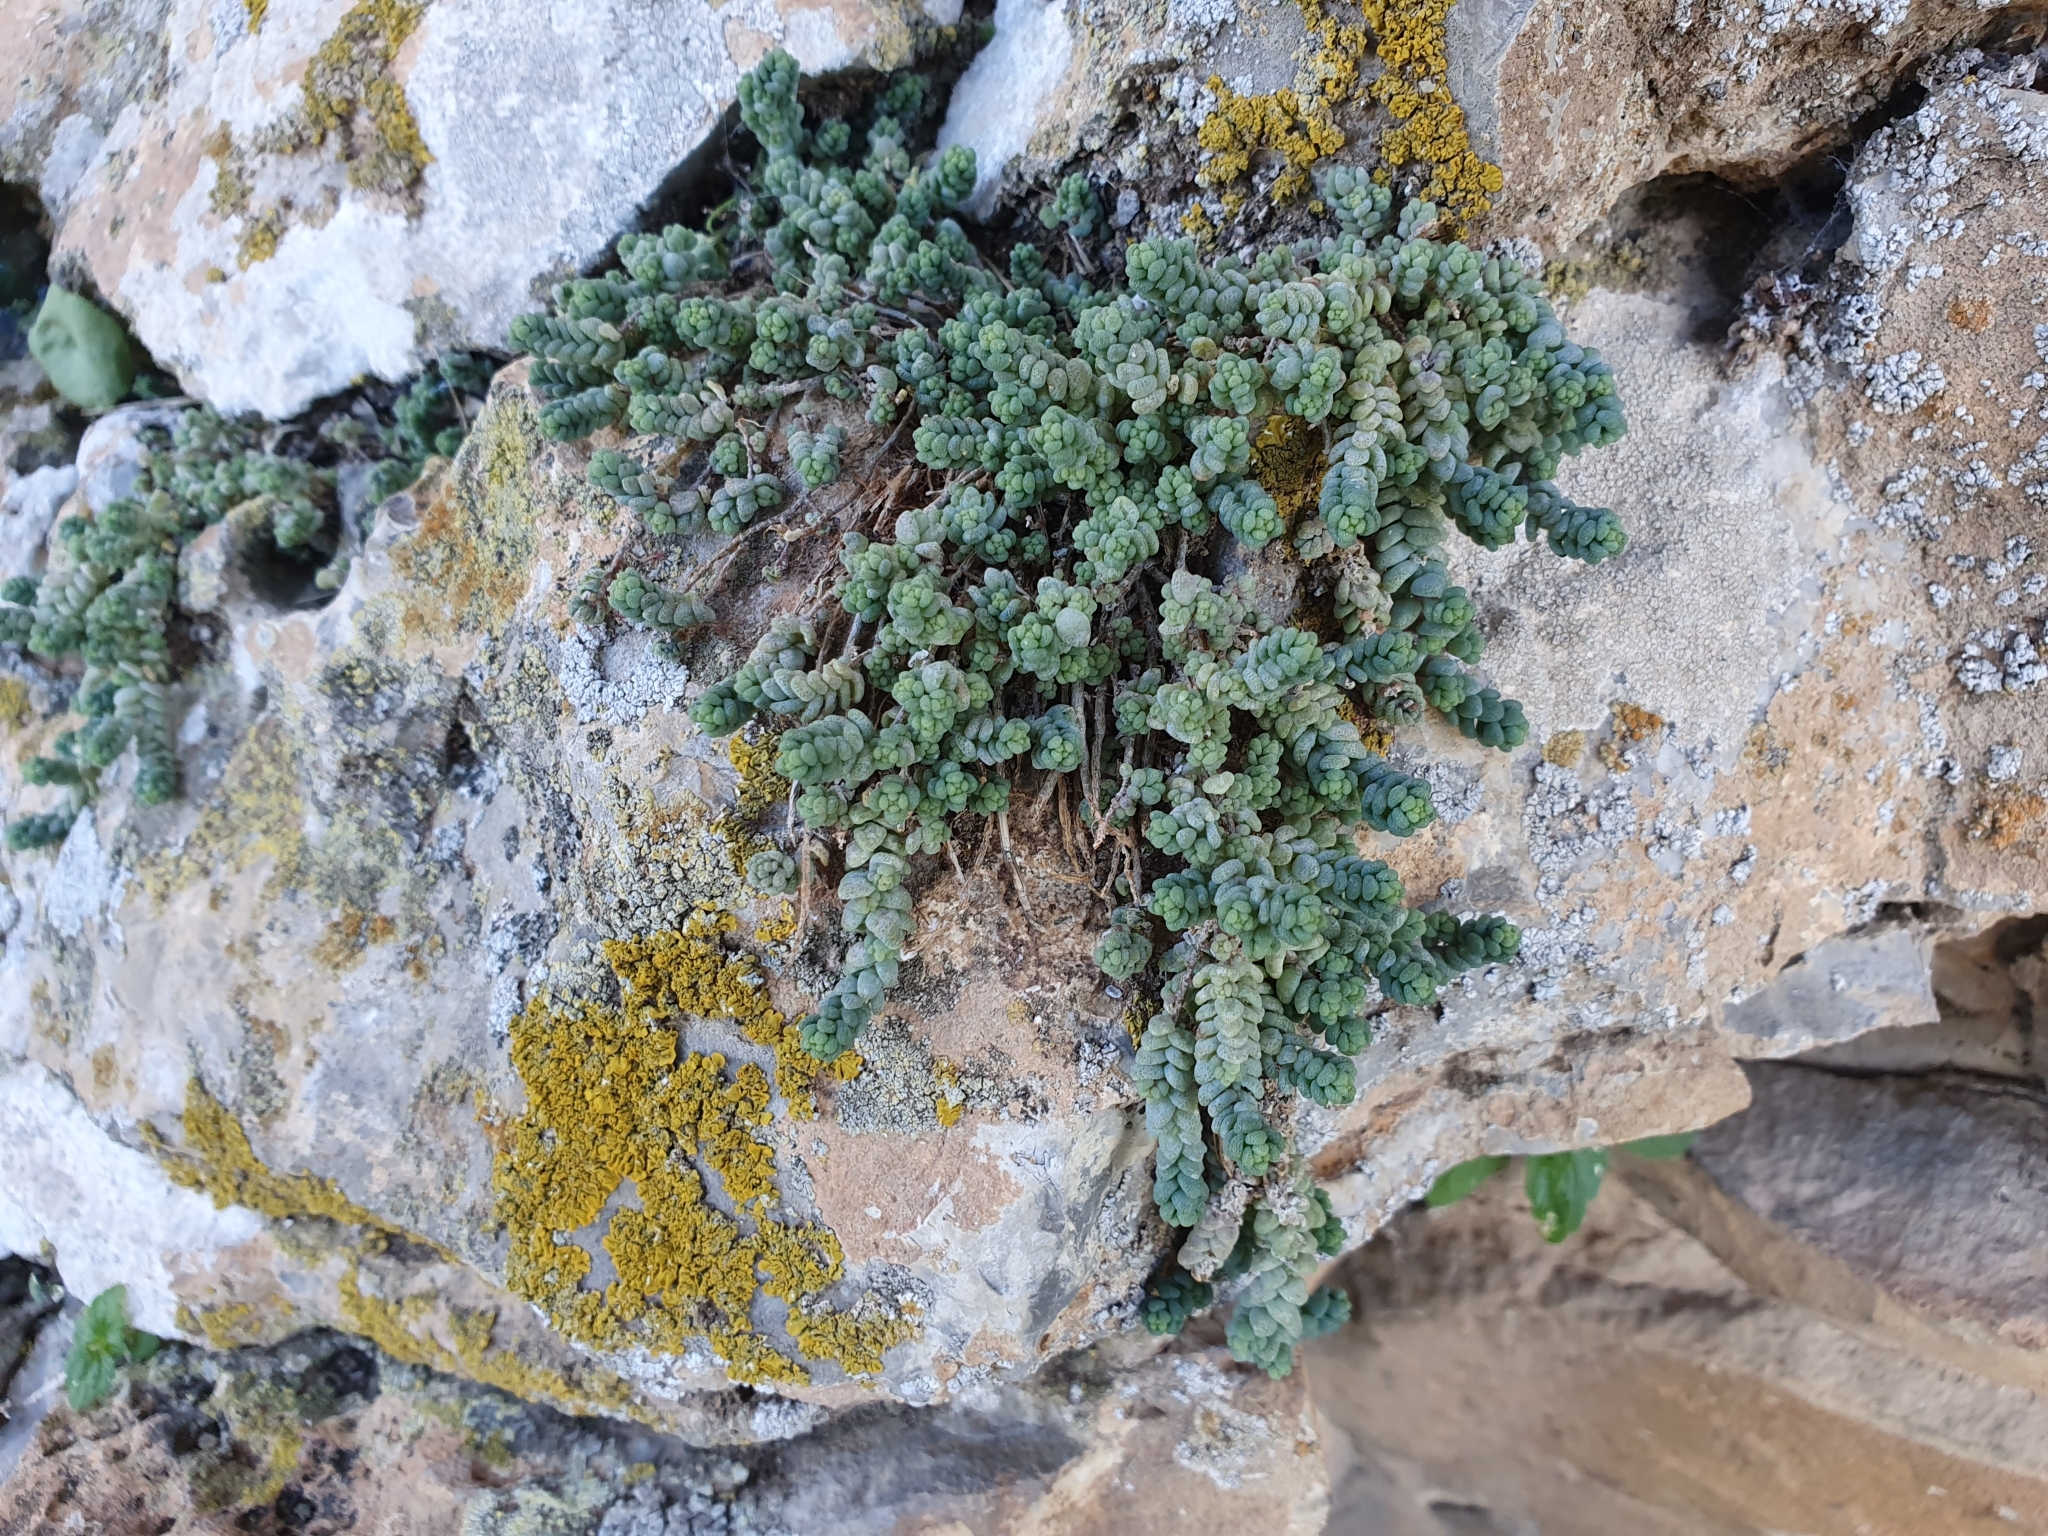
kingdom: Plantae
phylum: Tracheophyta
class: Magnoliopsida
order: Saxifragales
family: Crassulaceae
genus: Sedum
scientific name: Sedum dasyphyllum
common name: Thick-leaf stonecrop
